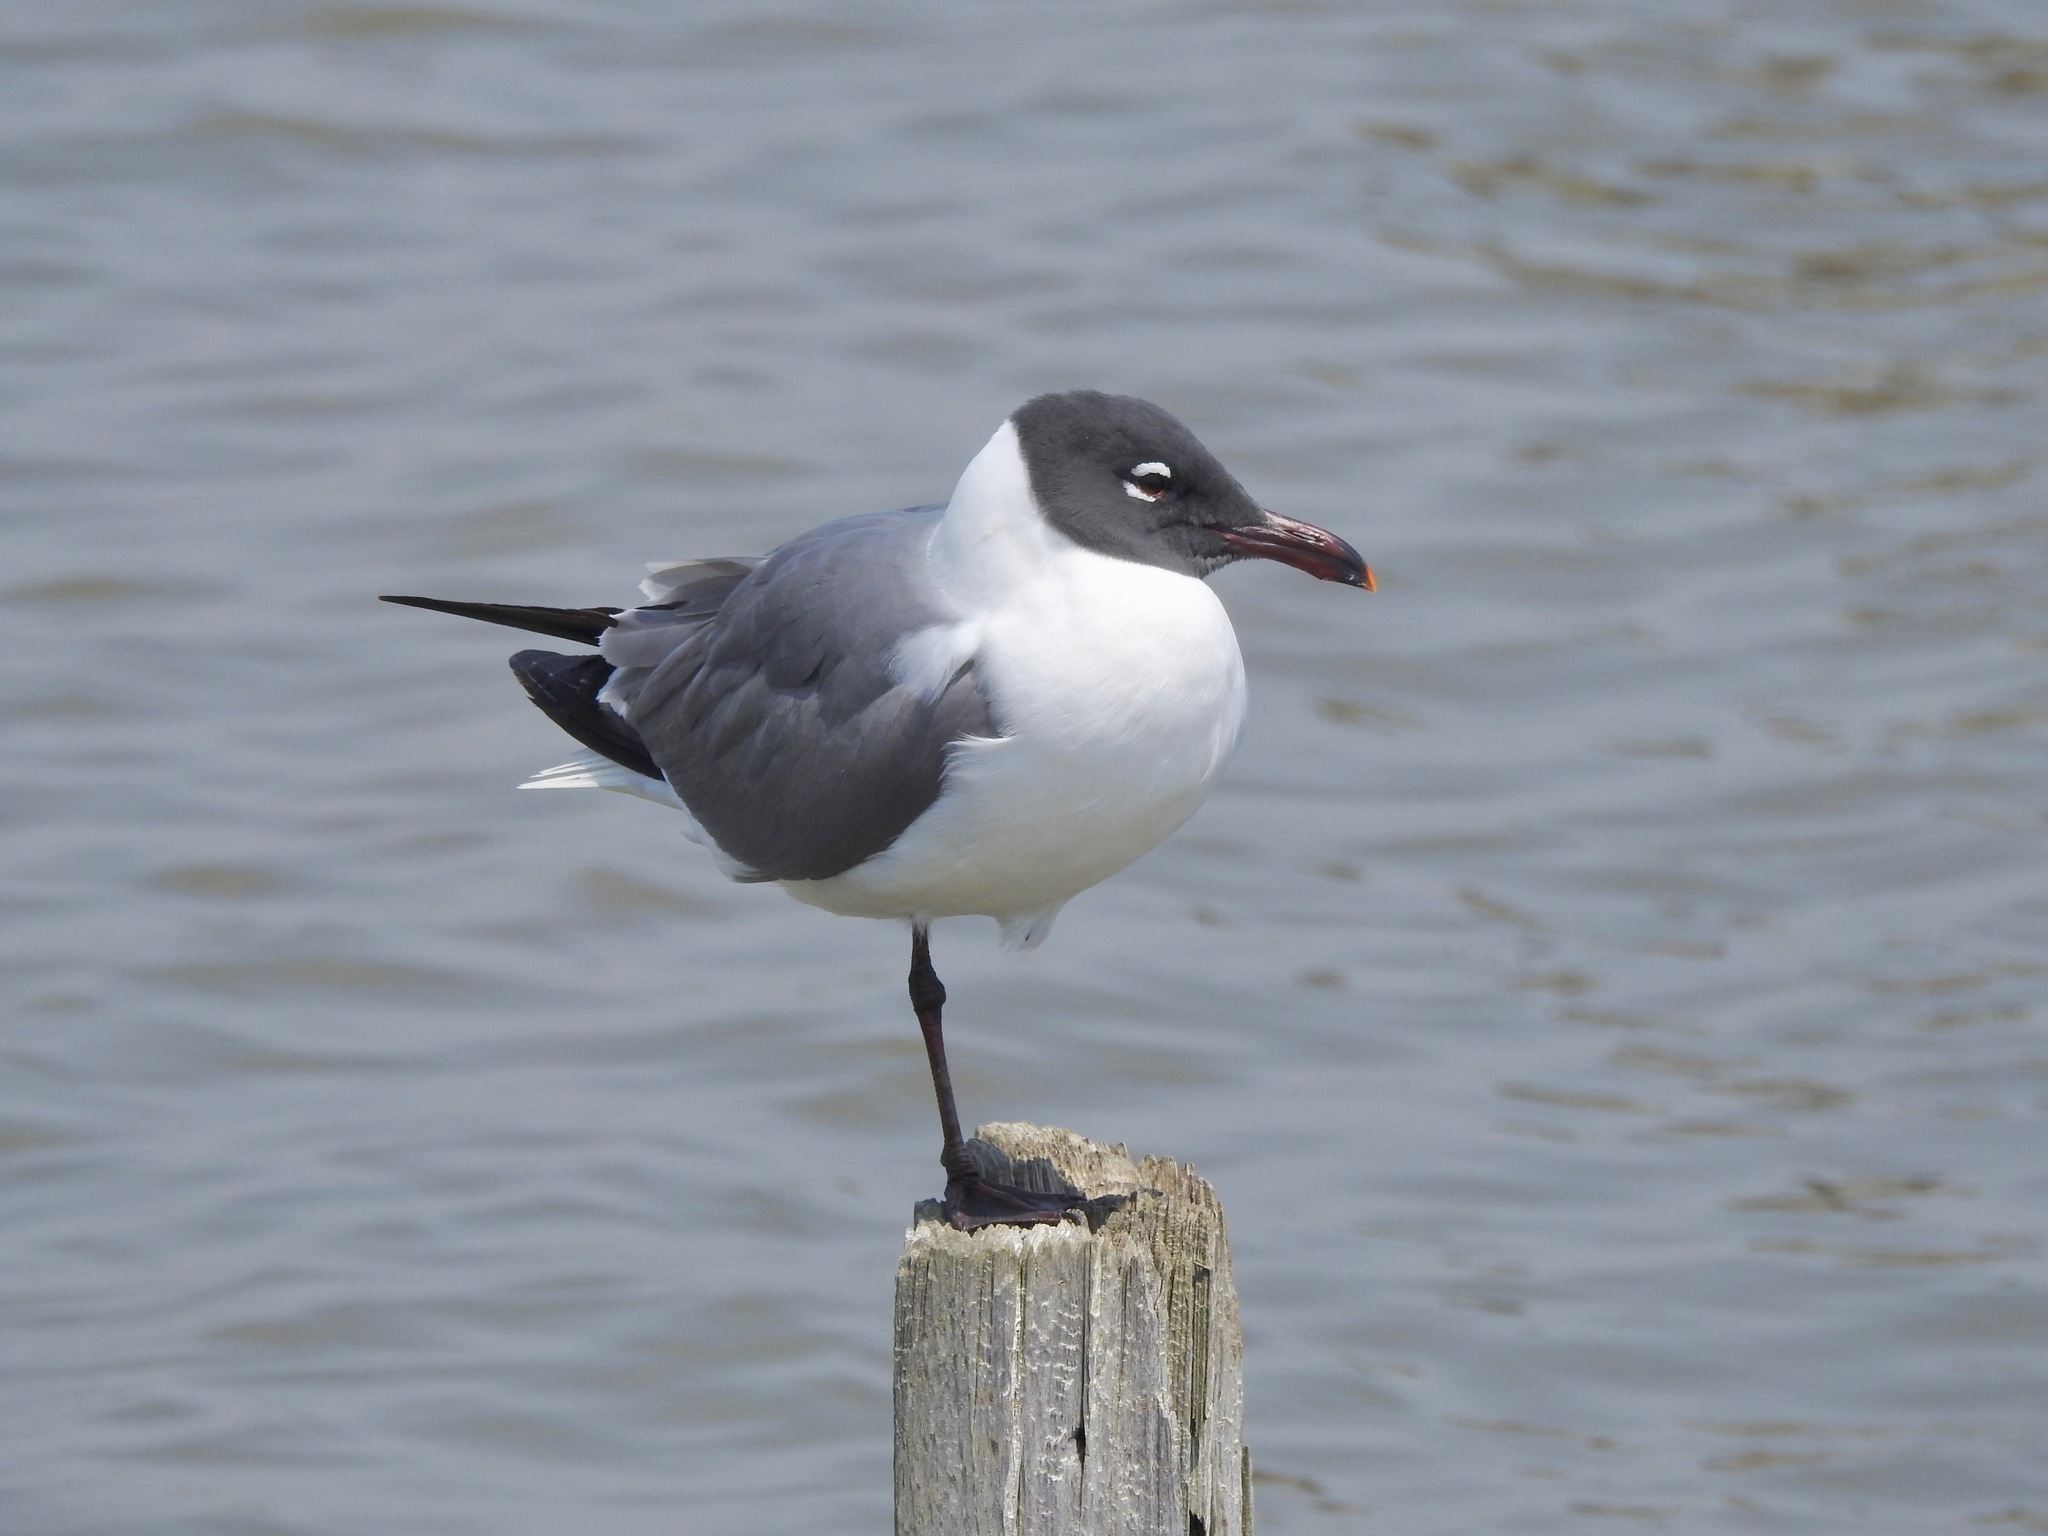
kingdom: Animalia
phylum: Chordata
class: Aves
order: Charadriiformes
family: Laridae
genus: Leucophaeus
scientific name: Leucophaeus atricilla
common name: Laughing gull
